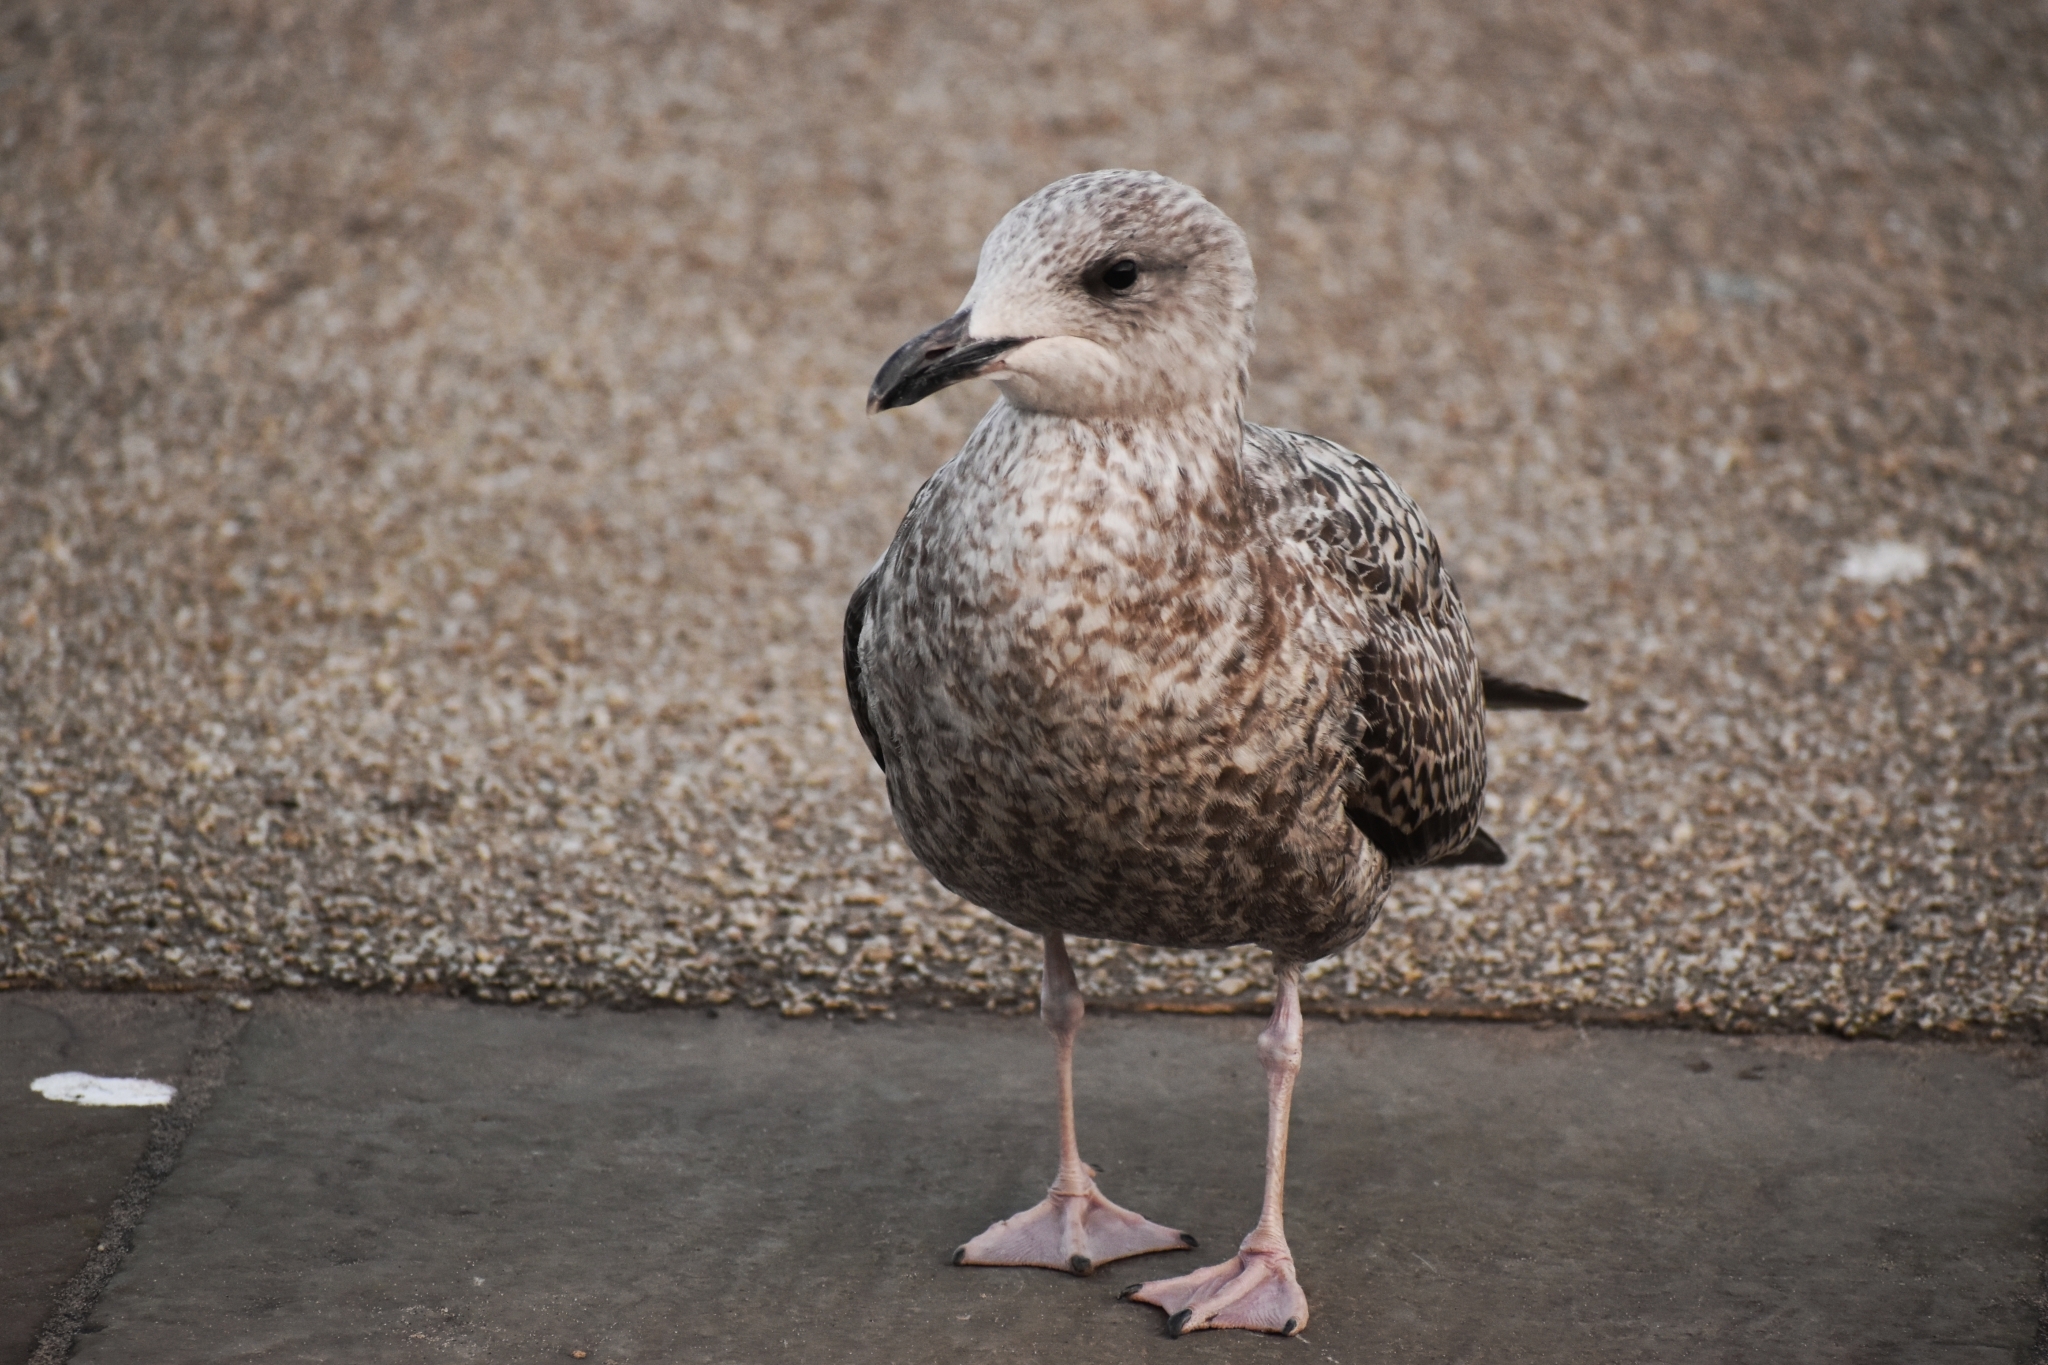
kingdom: Animalia
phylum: Chordata
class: Aves
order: Charadriiformes
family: Laridae
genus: Larus
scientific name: Larus argentatus
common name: Herring gull
